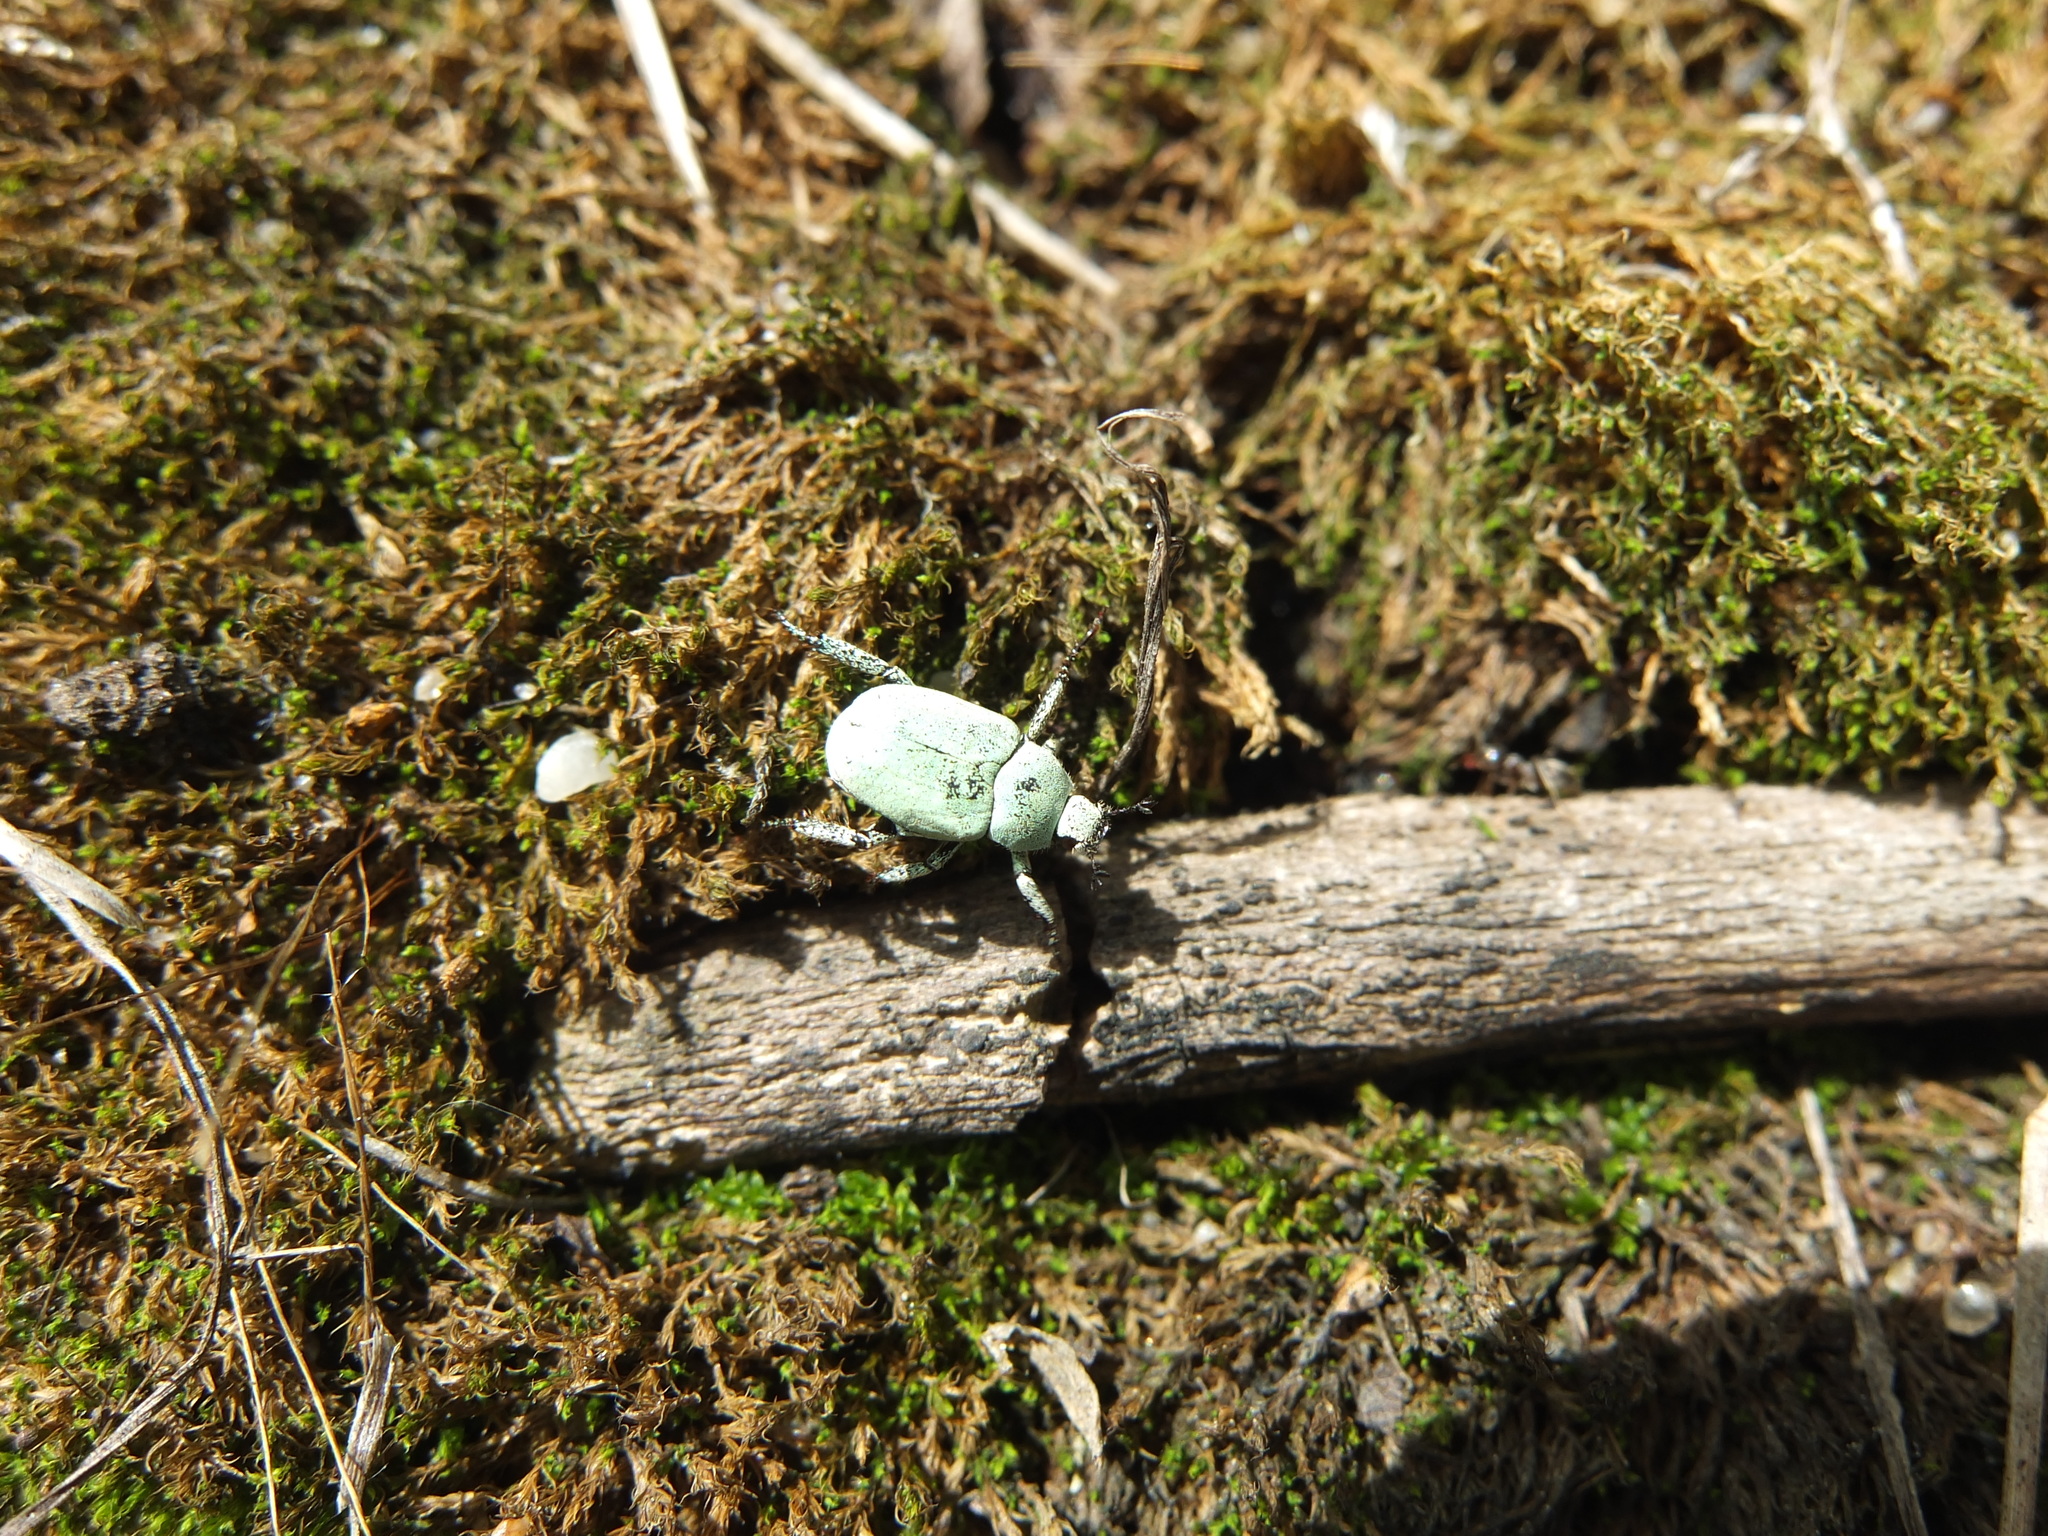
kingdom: Animalia
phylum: Arthropoda
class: Insecta
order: Coleoptera
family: Scarabaeidae
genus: Hoplia
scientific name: Hoplia parvula
